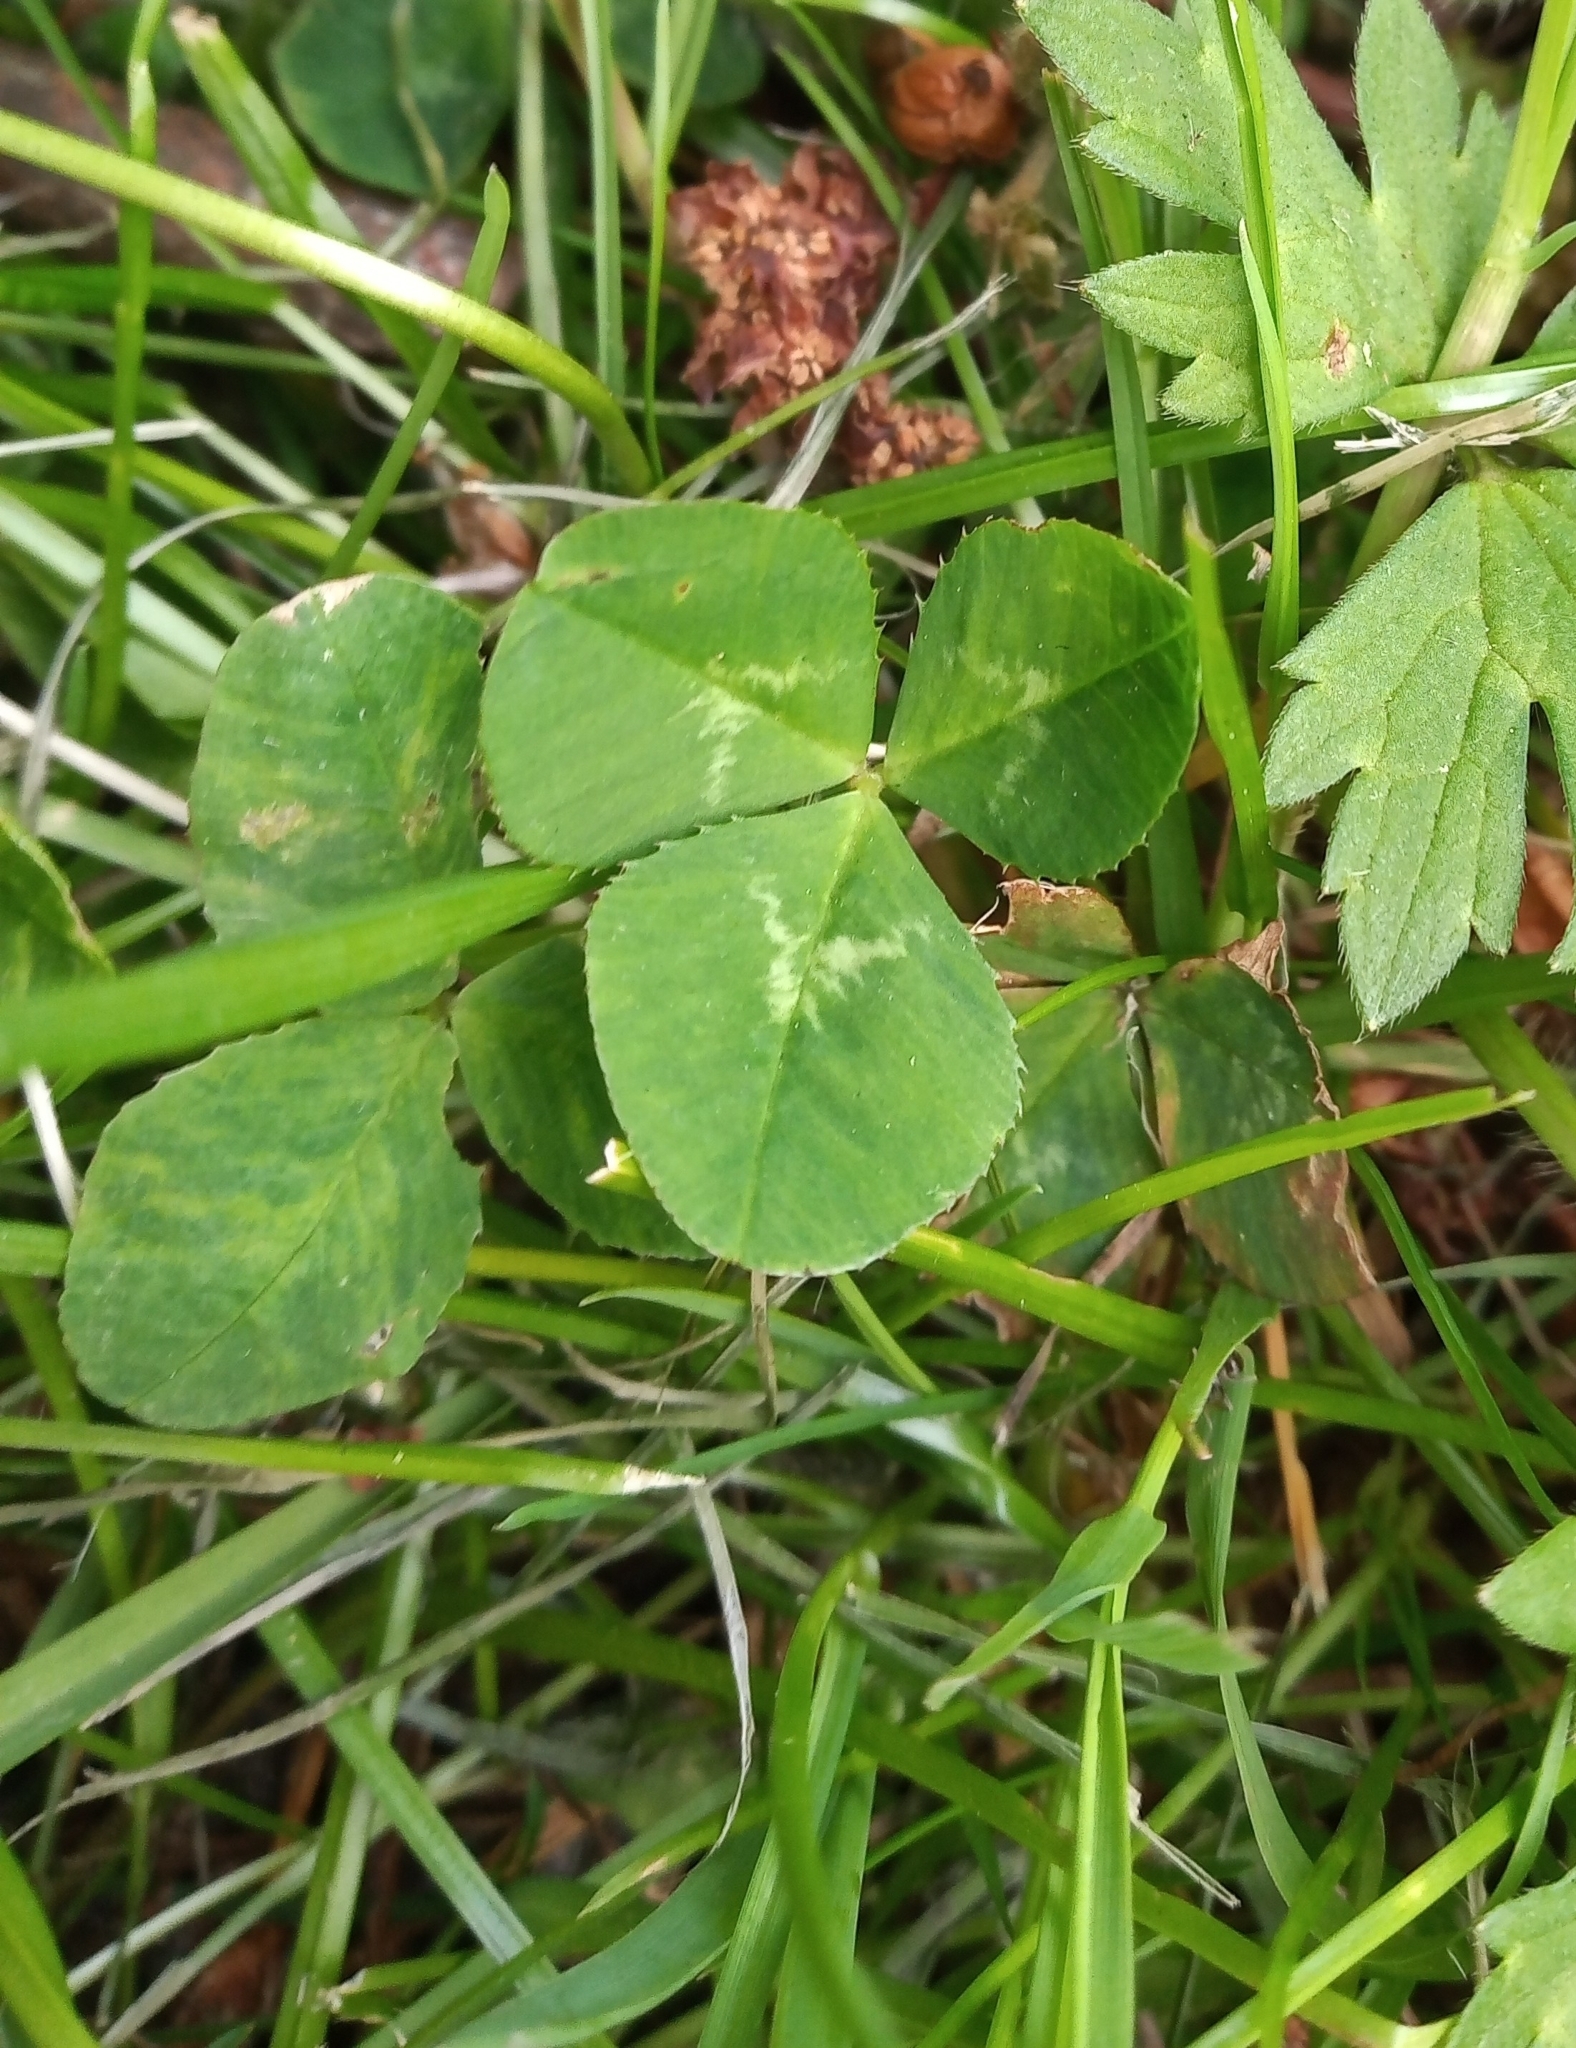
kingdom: Plantae
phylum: Tracheophyta
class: Magnoliopsida
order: Fabales
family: Fabaceae
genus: Trifolium
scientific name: Trifolium repens
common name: White clover
